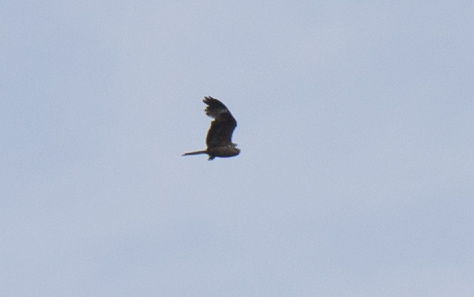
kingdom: Animalia
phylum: Chordata
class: Aves
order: Accipitriformes
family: Accipitridae
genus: Milvus
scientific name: Milvus migrans
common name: Black kite
